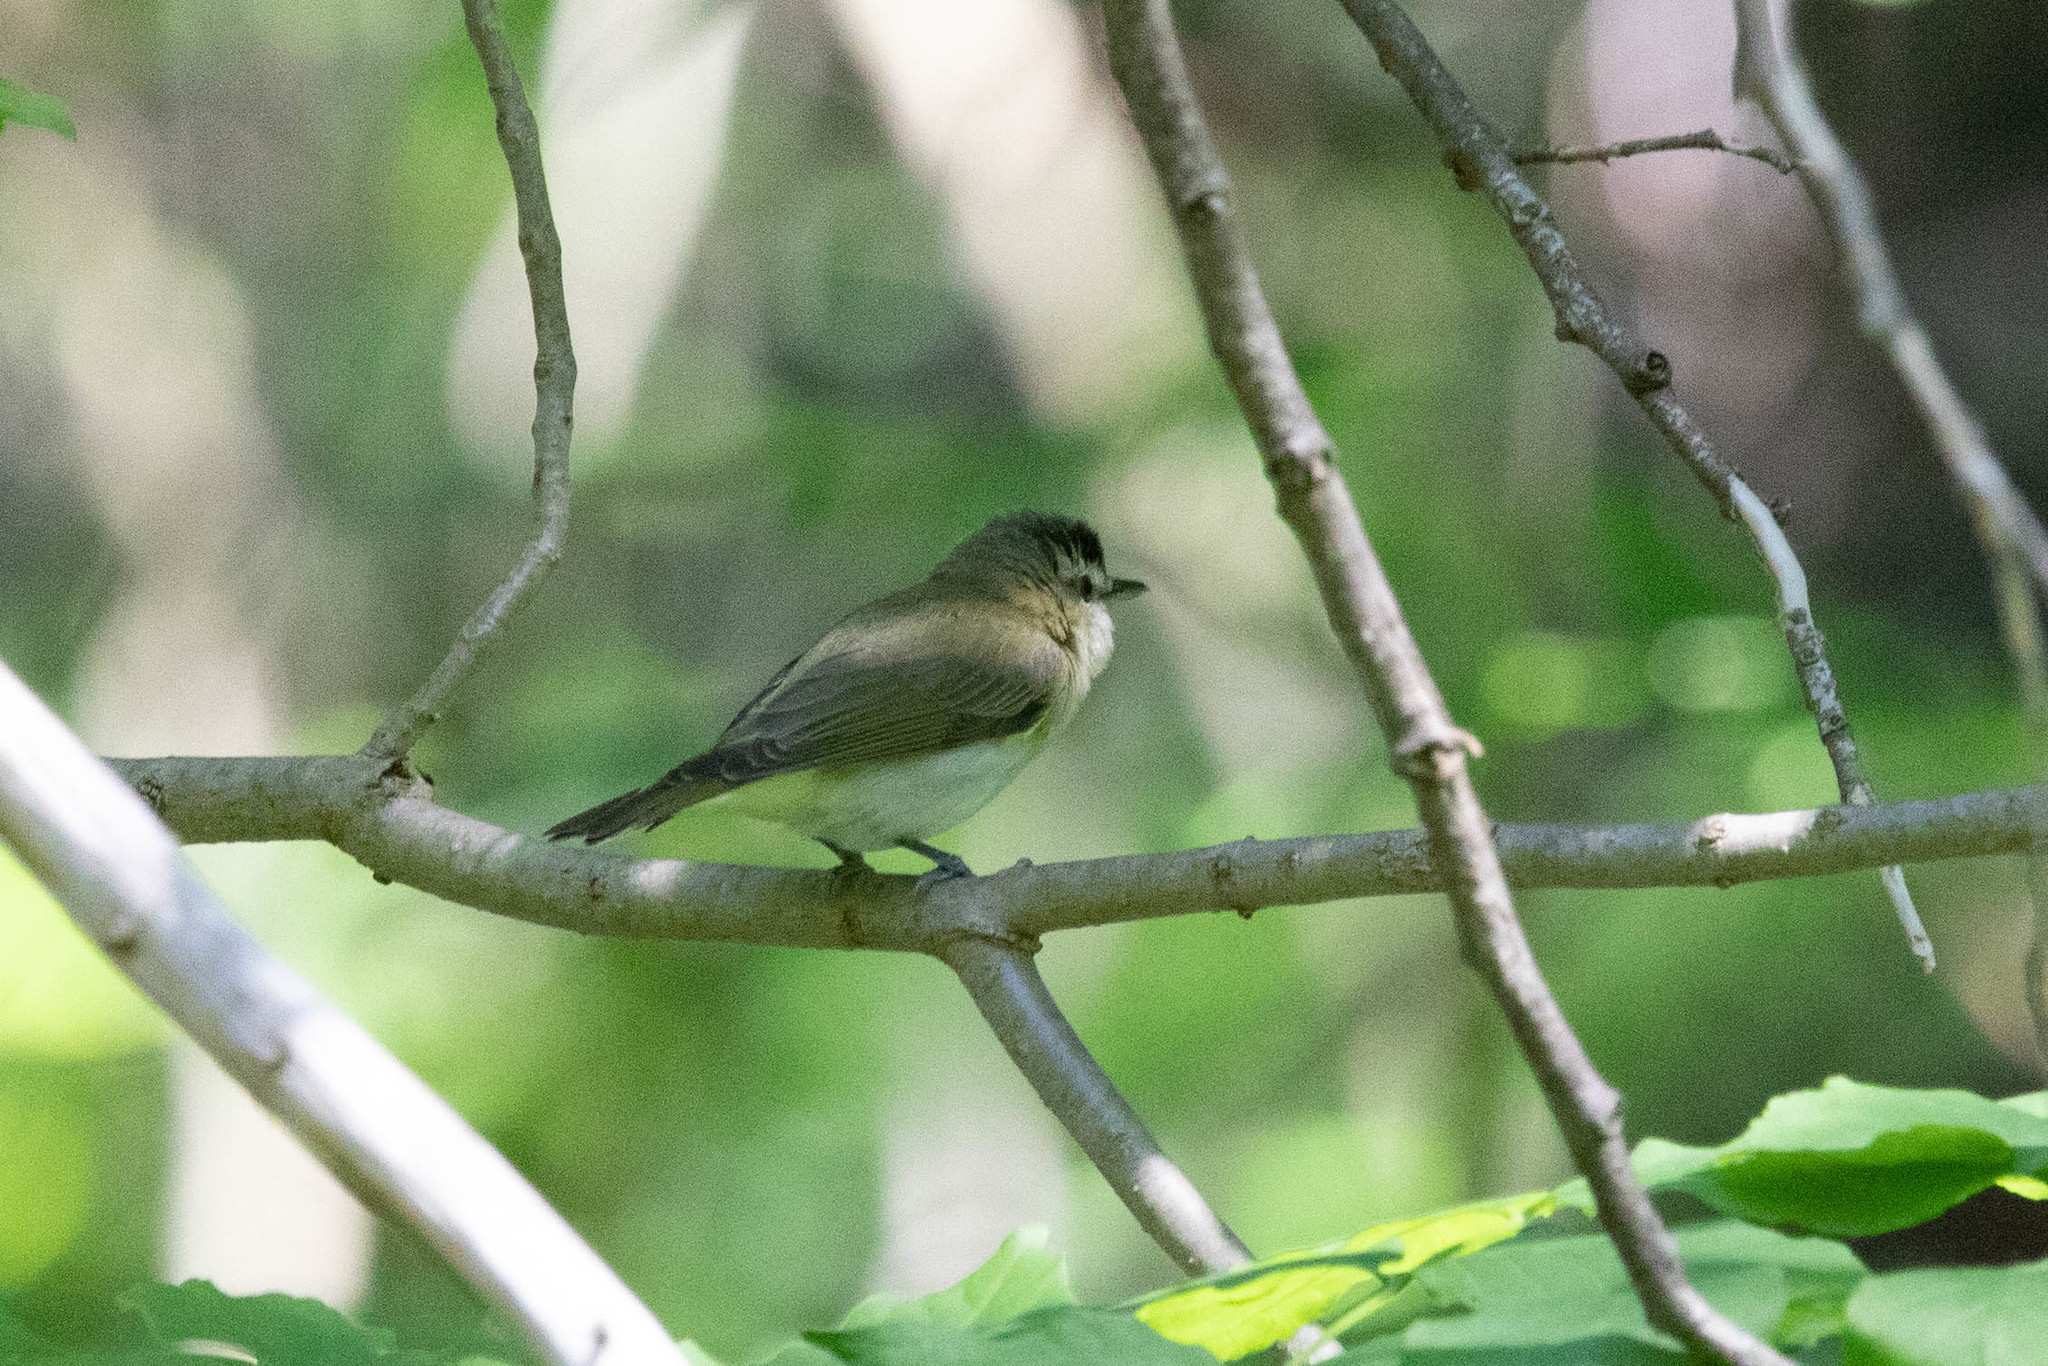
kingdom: Animalia
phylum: Chordata
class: Aves
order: Passeriformes
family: Vireonidae
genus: Vireo
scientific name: Vireo olivaceus
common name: Red-eyed vireo
